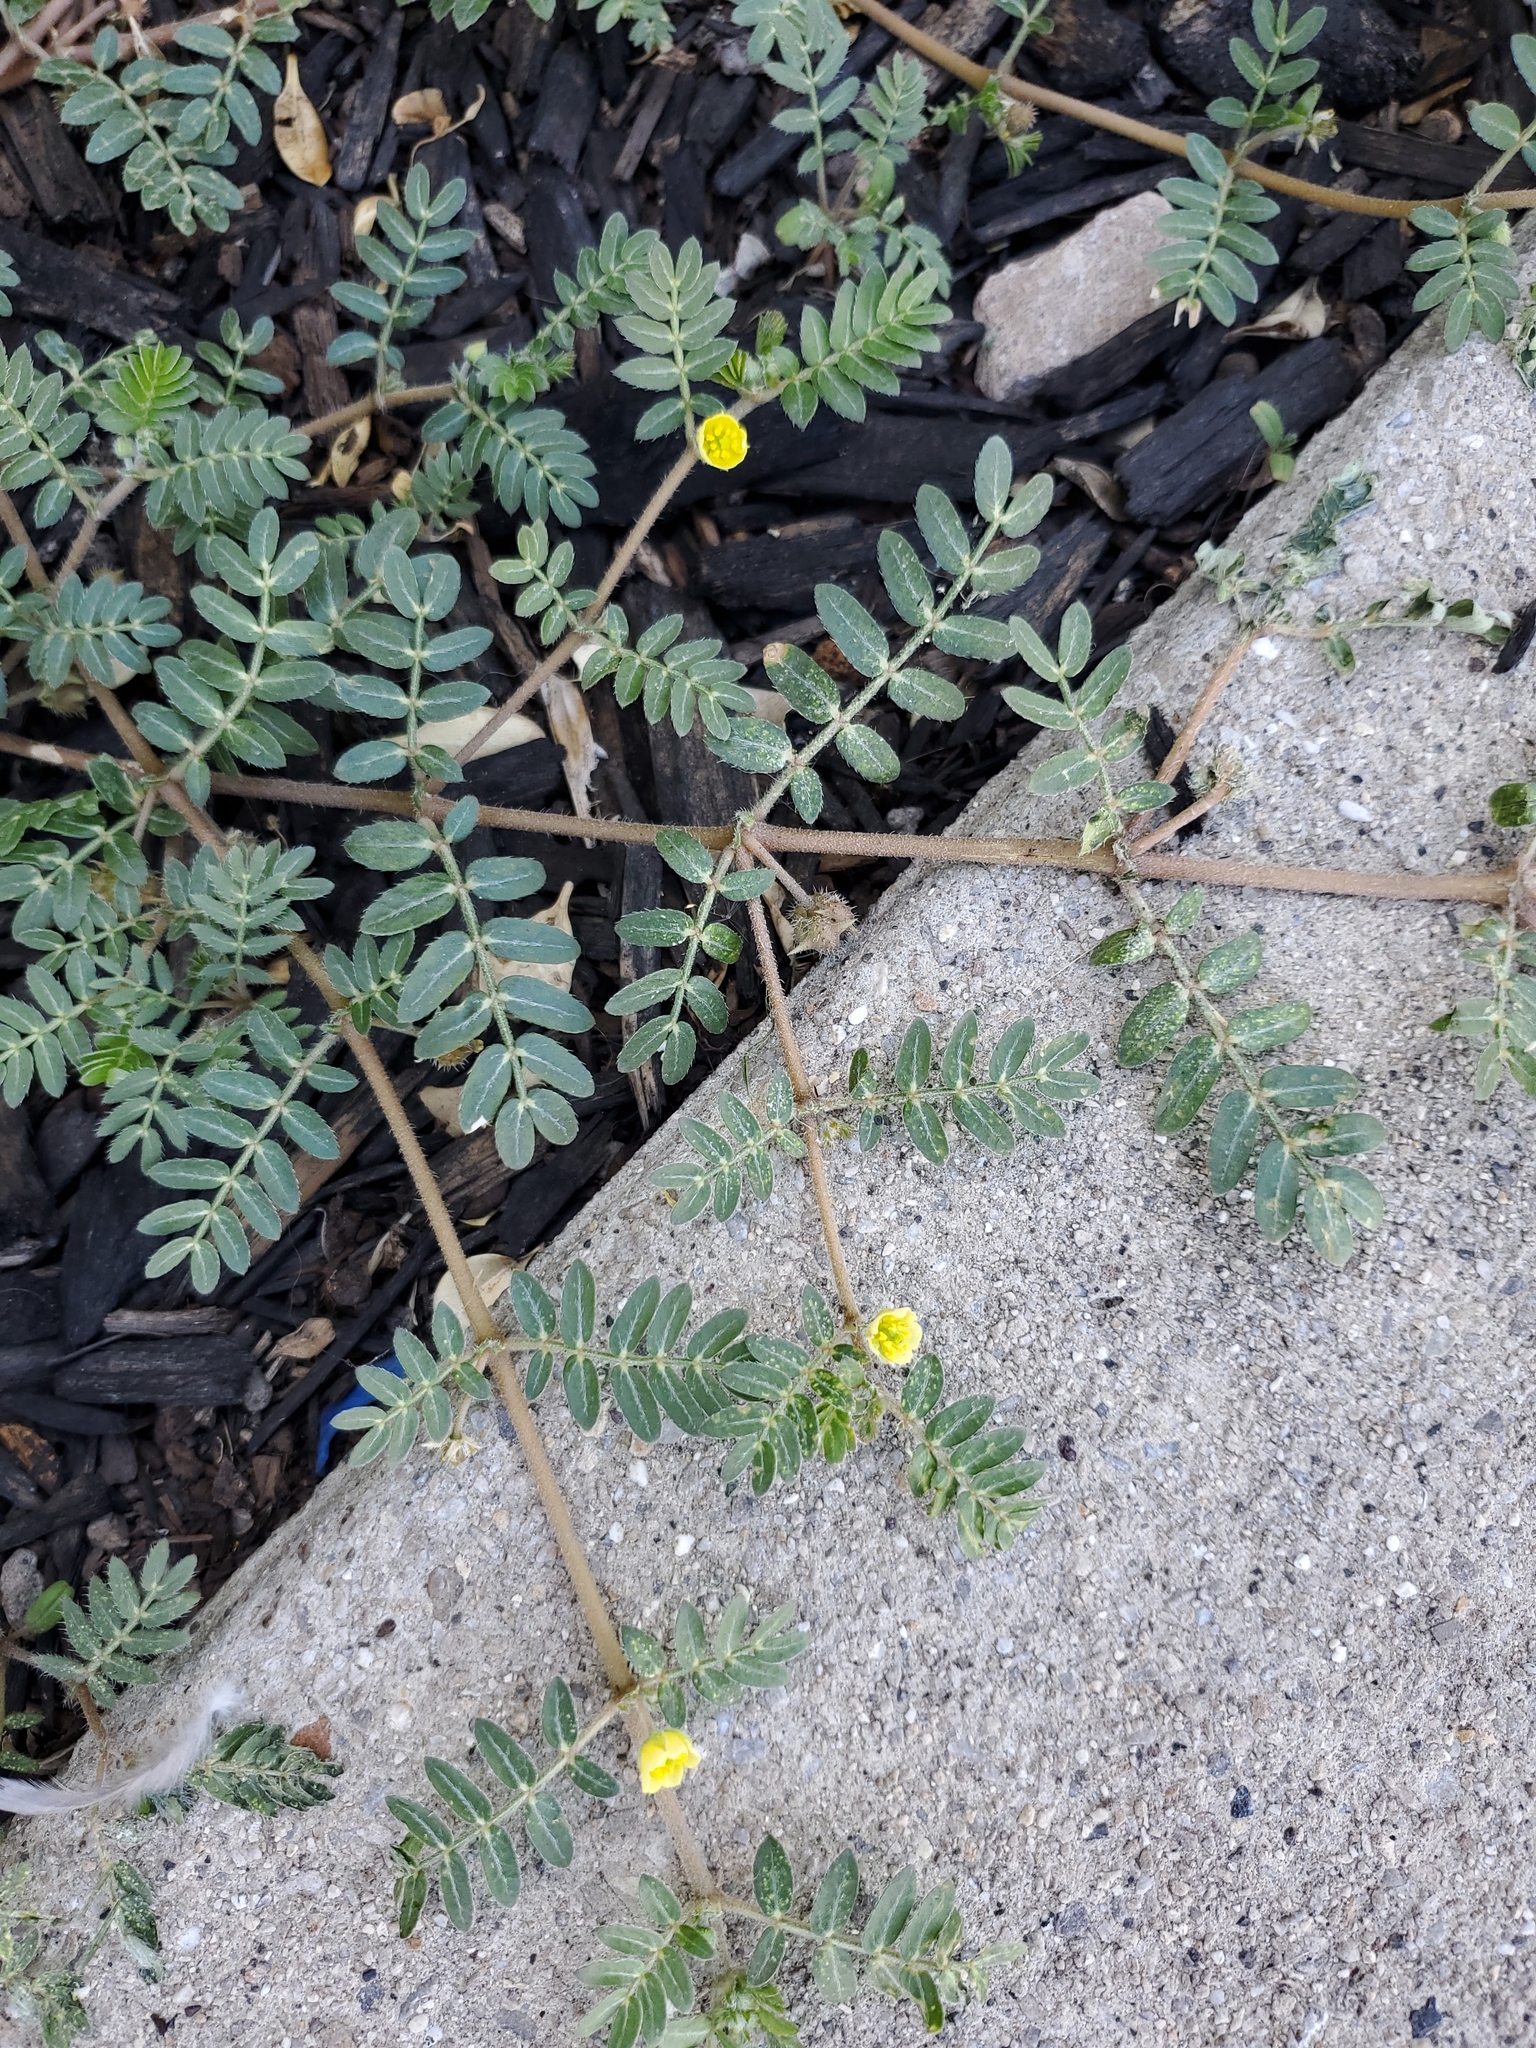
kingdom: Plantae
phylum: Tracheophyta
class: Magnoliopsida
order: Zygophyllales
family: Zygophyllaceae
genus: Tribulus
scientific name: Tribulus terrestris
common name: Puncturevine
